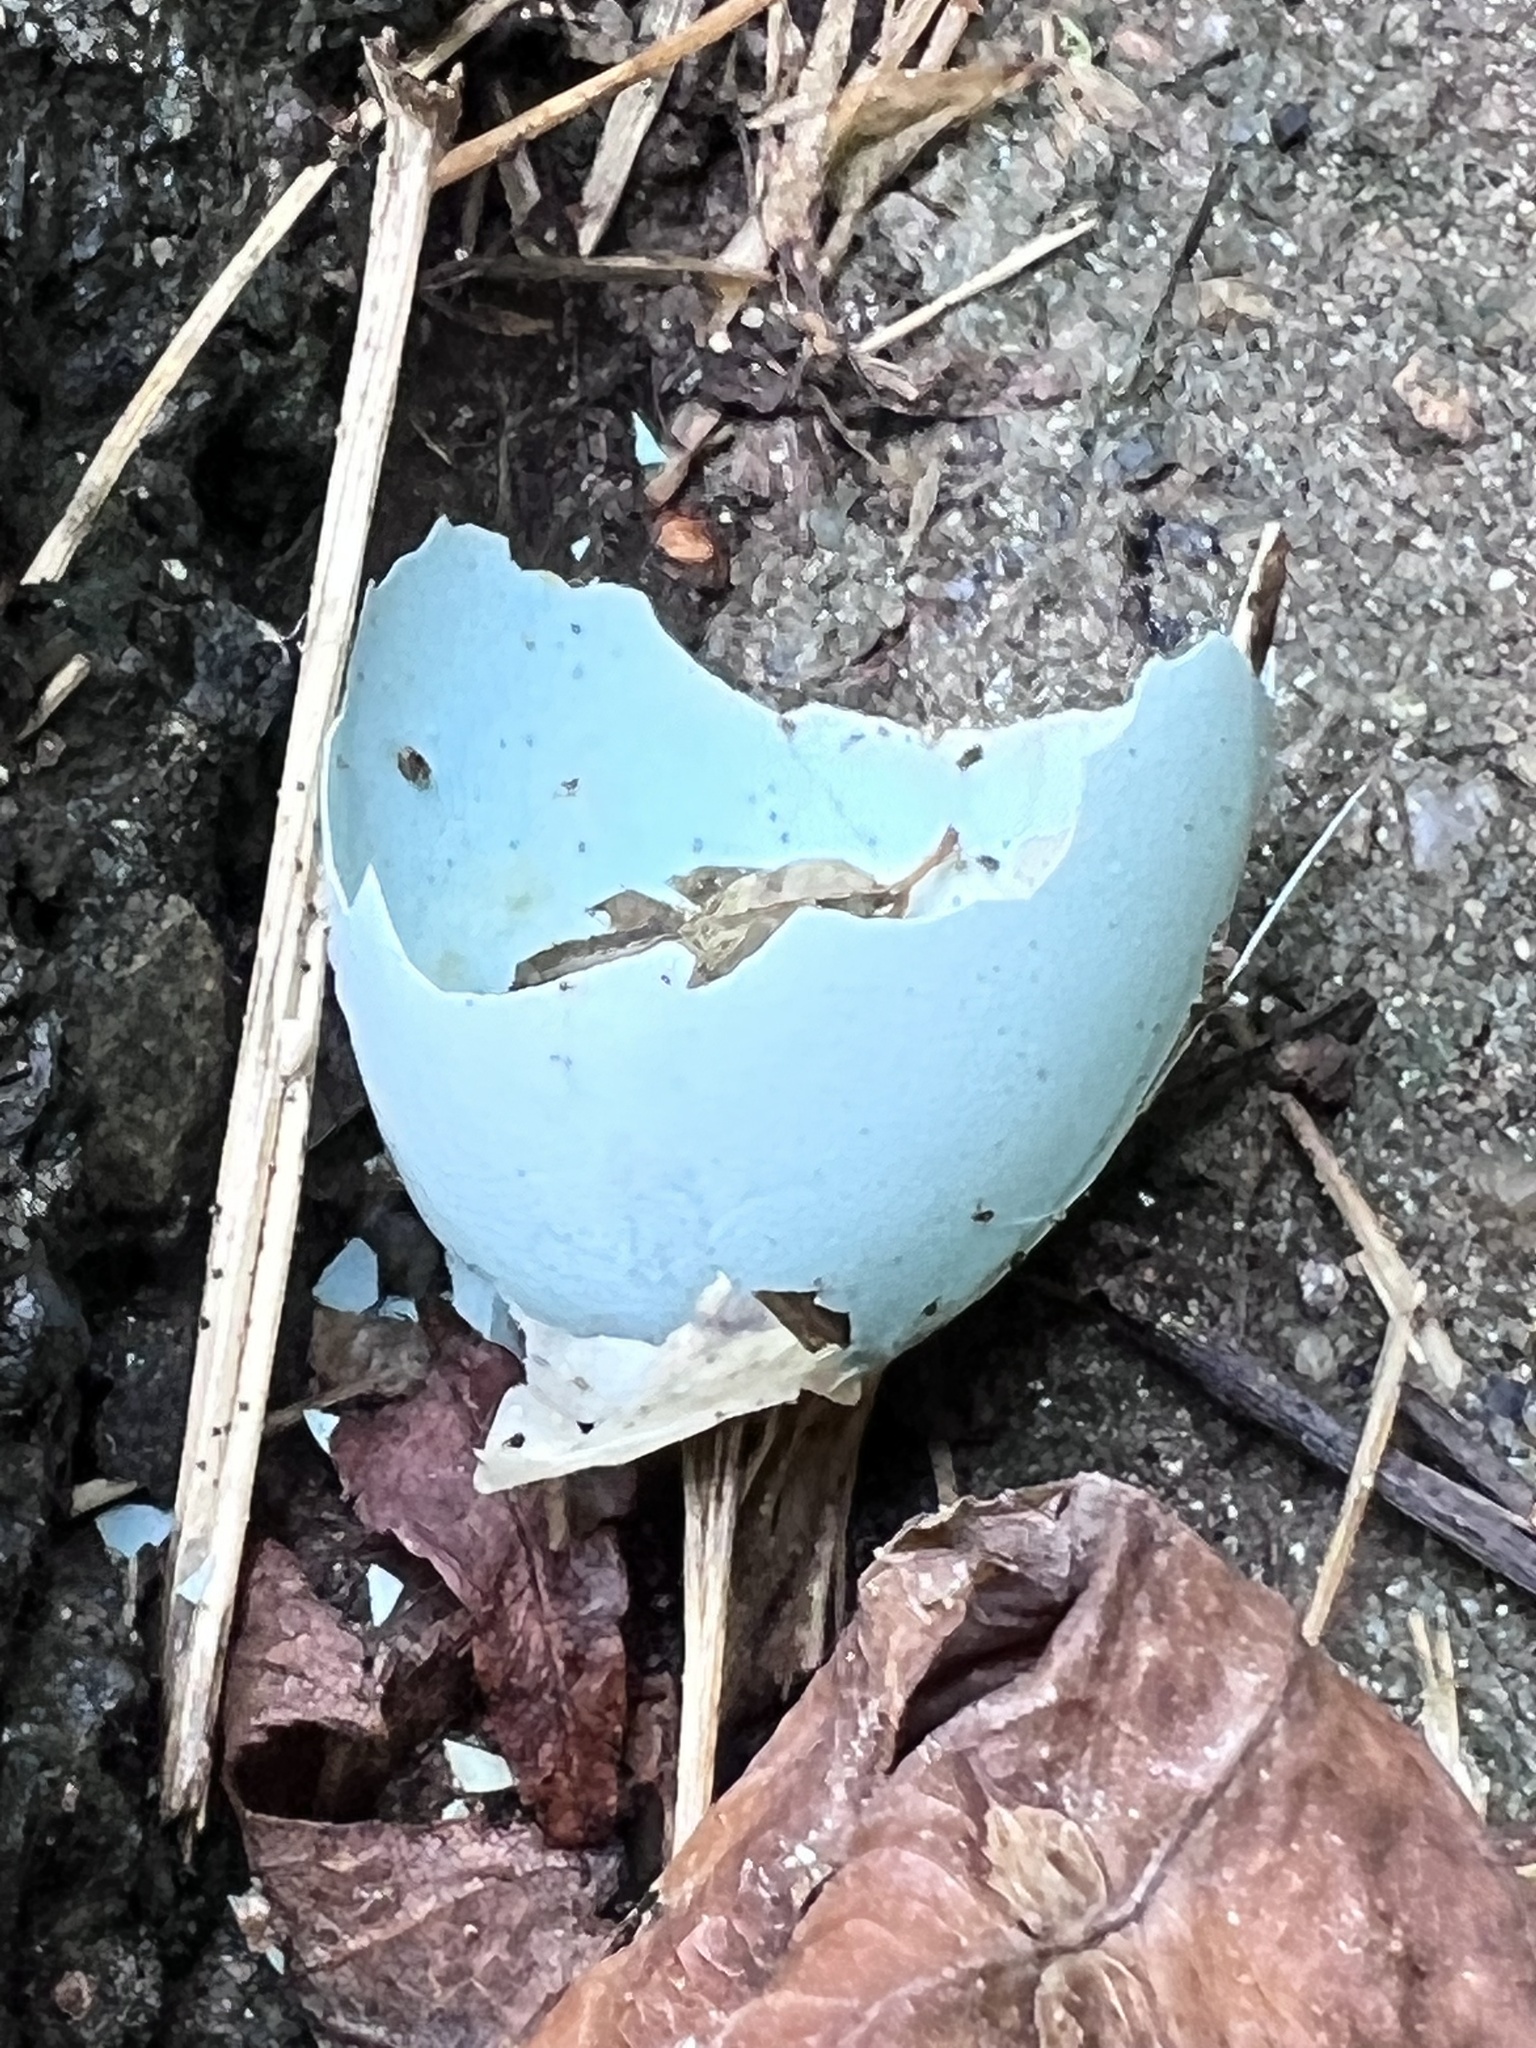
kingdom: Animalia
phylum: Chordata
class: Aves
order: Passeriformes
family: Turdidae
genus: Turdus
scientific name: Turdus migratorius
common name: American robin
